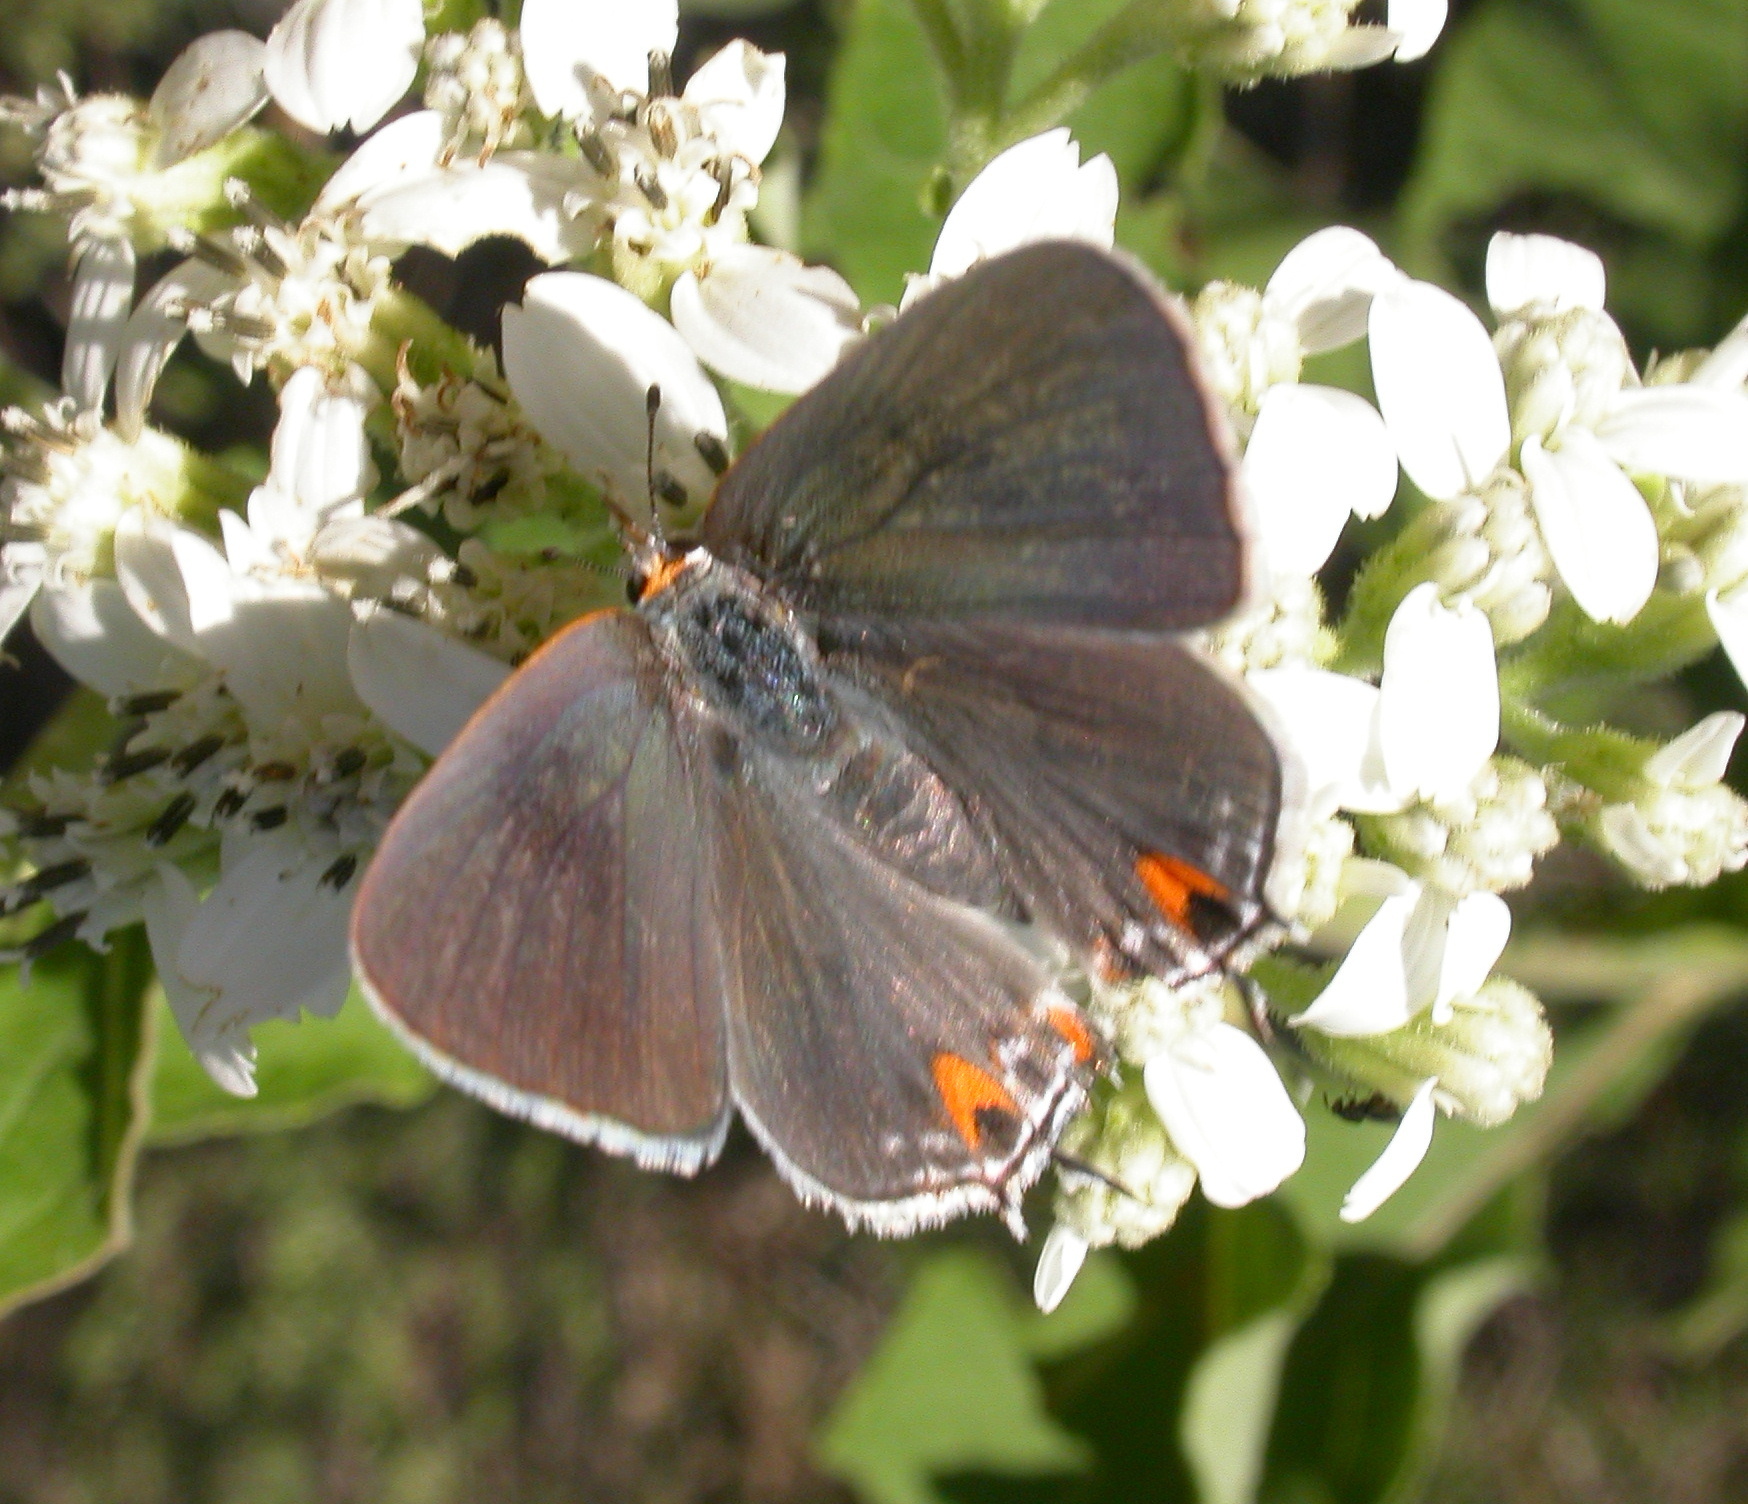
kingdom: Animalia
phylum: Arthropoda
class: Insecta
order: Lepidoptera
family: Lycaenidae
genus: Strymon
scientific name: Strymon melinus
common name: Gray hairstreak
